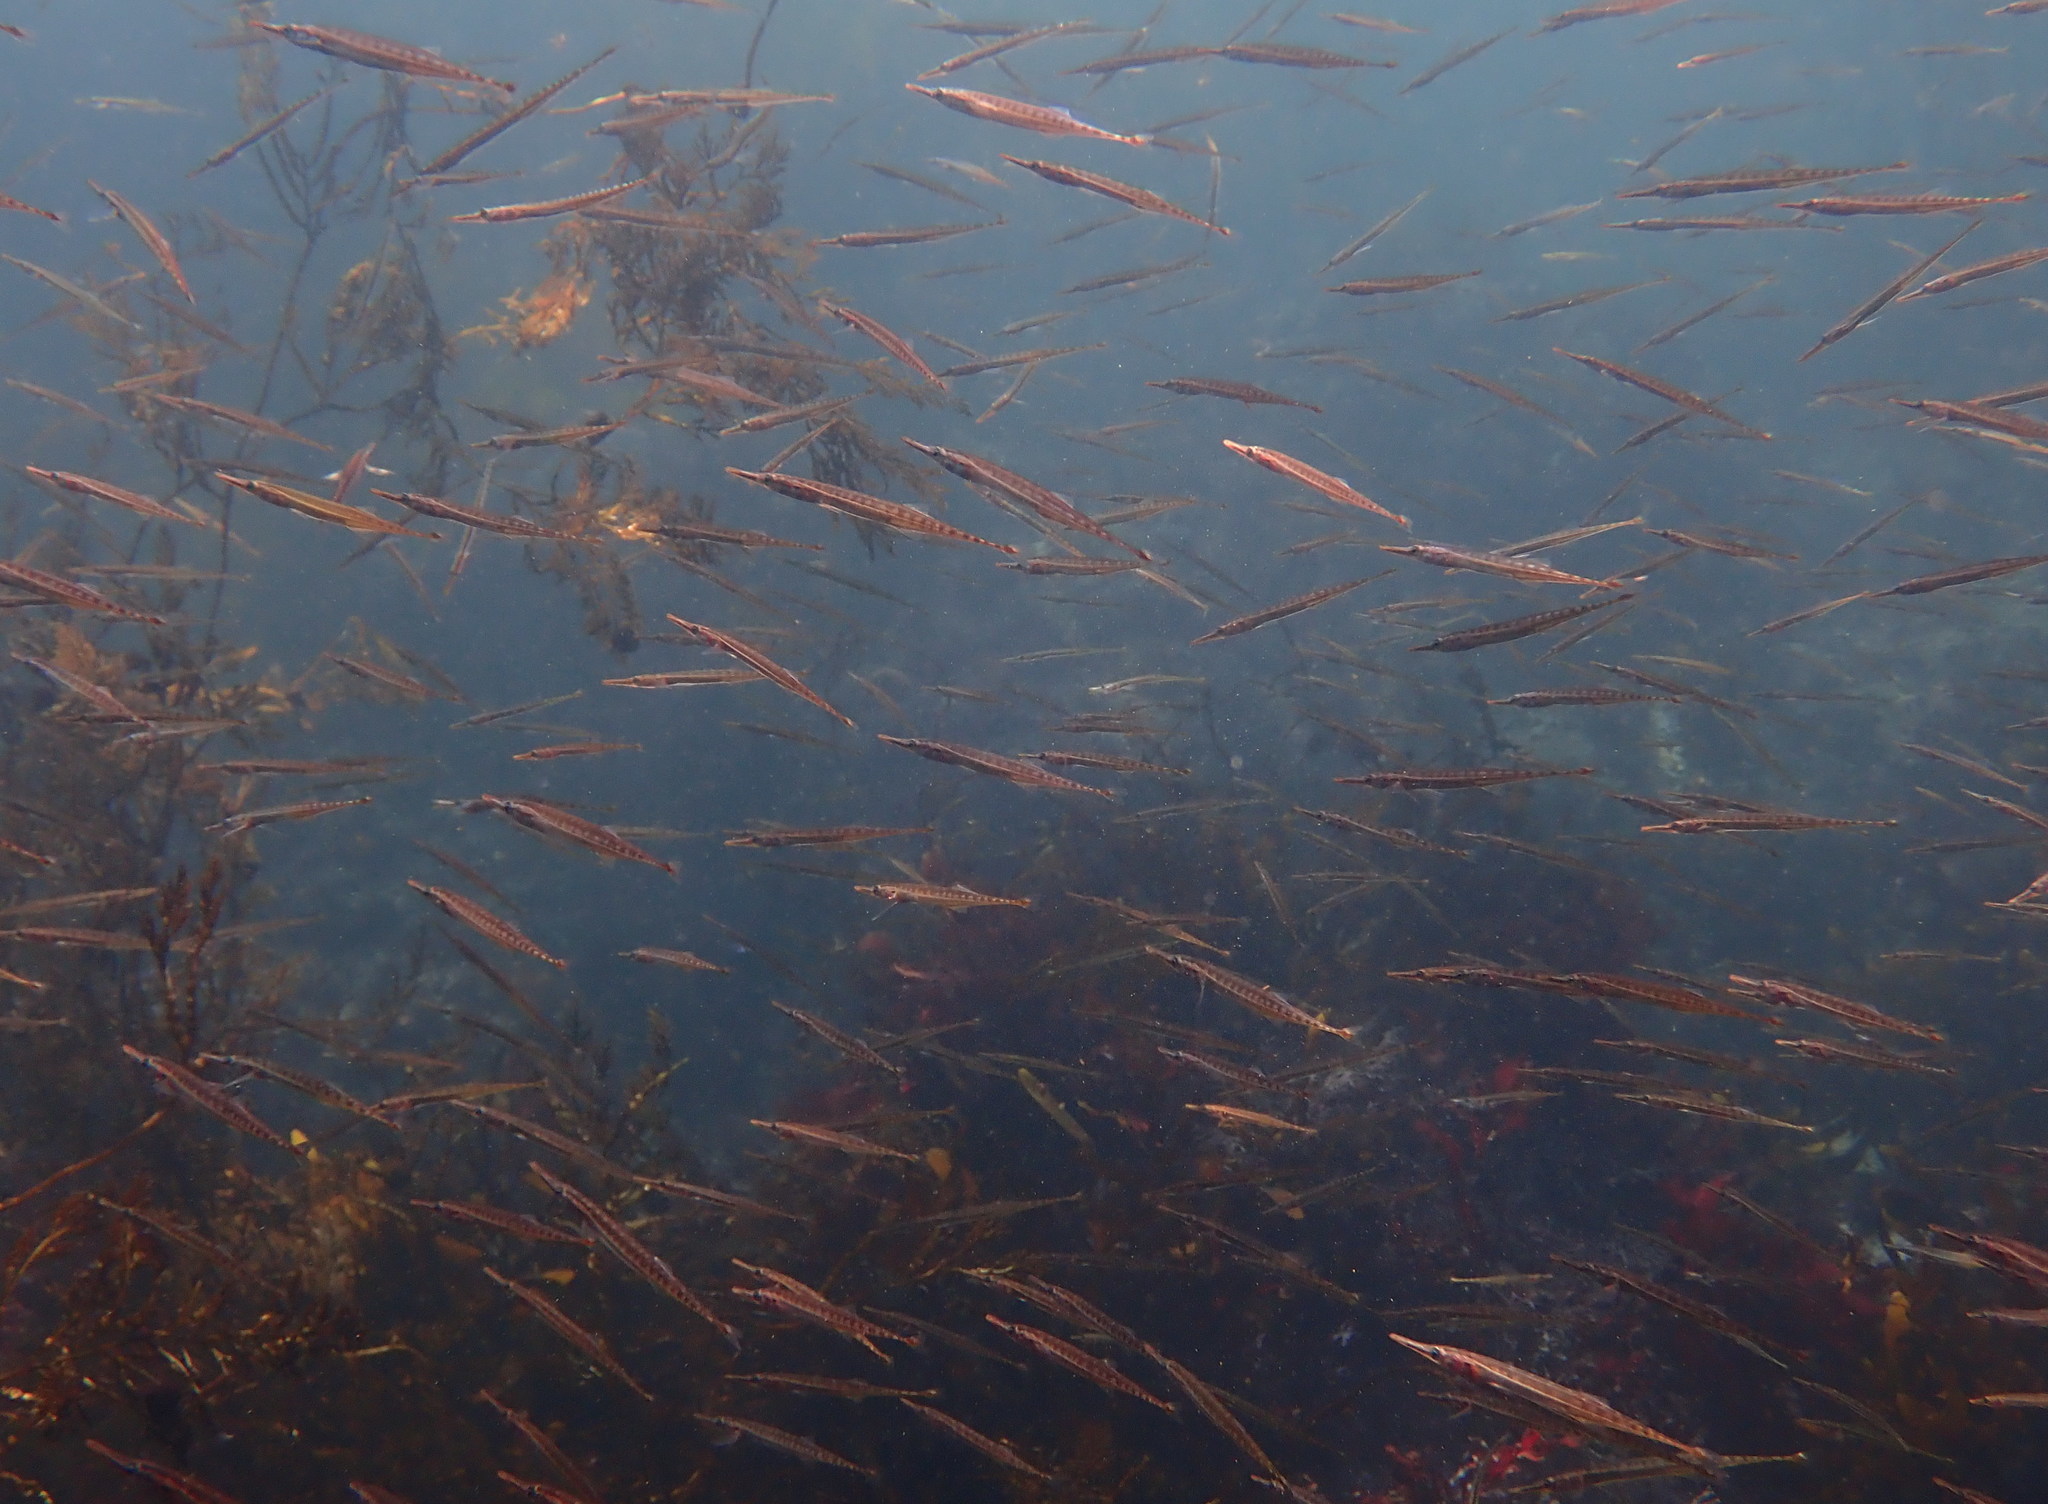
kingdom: Animalia
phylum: Chordata
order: Gasterosteiformes
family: Aulorhynchidae
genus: Aulorhynchus
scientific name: Aulorhynchus flavidus
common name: Tube-snout
